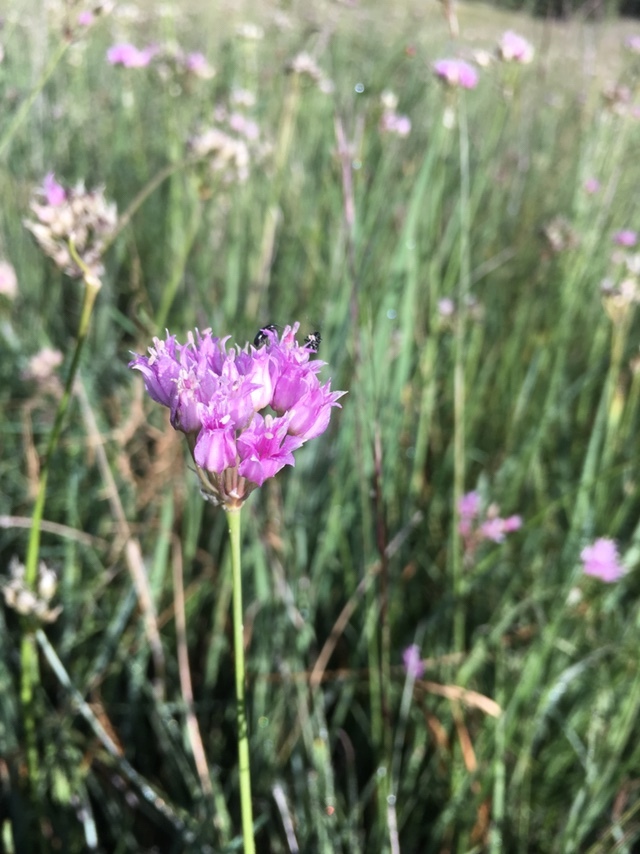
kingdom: Plantae
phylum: Tracheophyta
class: Liliopsida
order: Asparagales
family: Amaryllidaceae
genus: Allium
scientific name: Allium geyeri
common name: Geyer's onion
